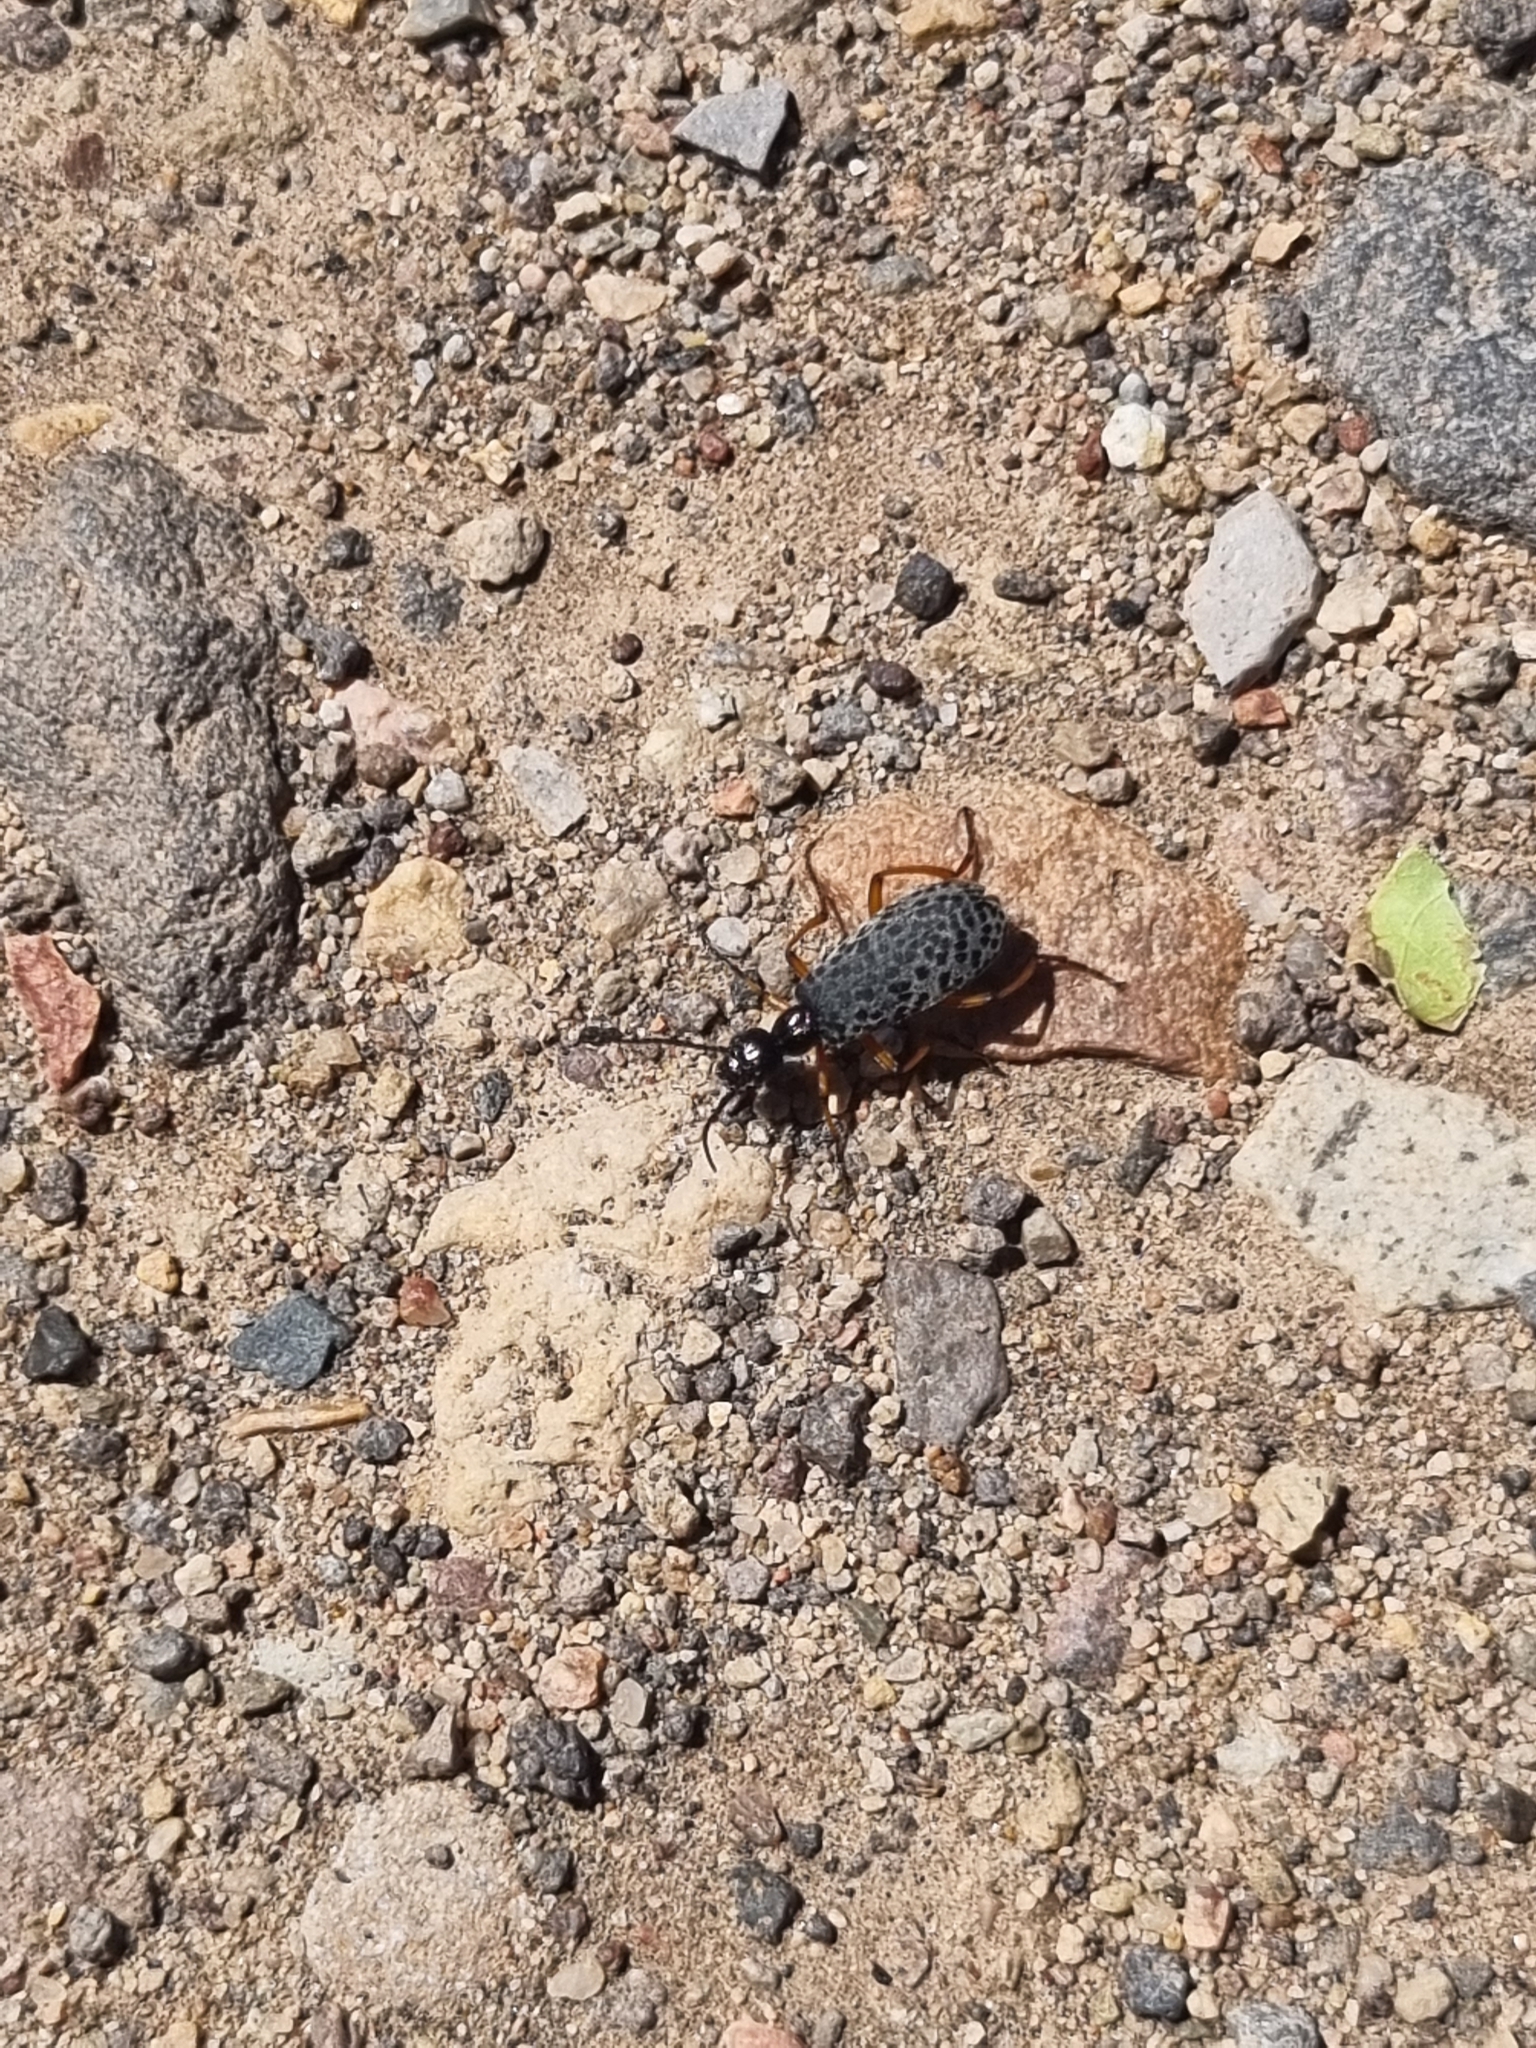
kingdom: Animalia
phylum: Arthropoda
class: Insecta
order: Coleoptera
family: Meloidae
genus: Epicauta
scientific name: Epicauta
